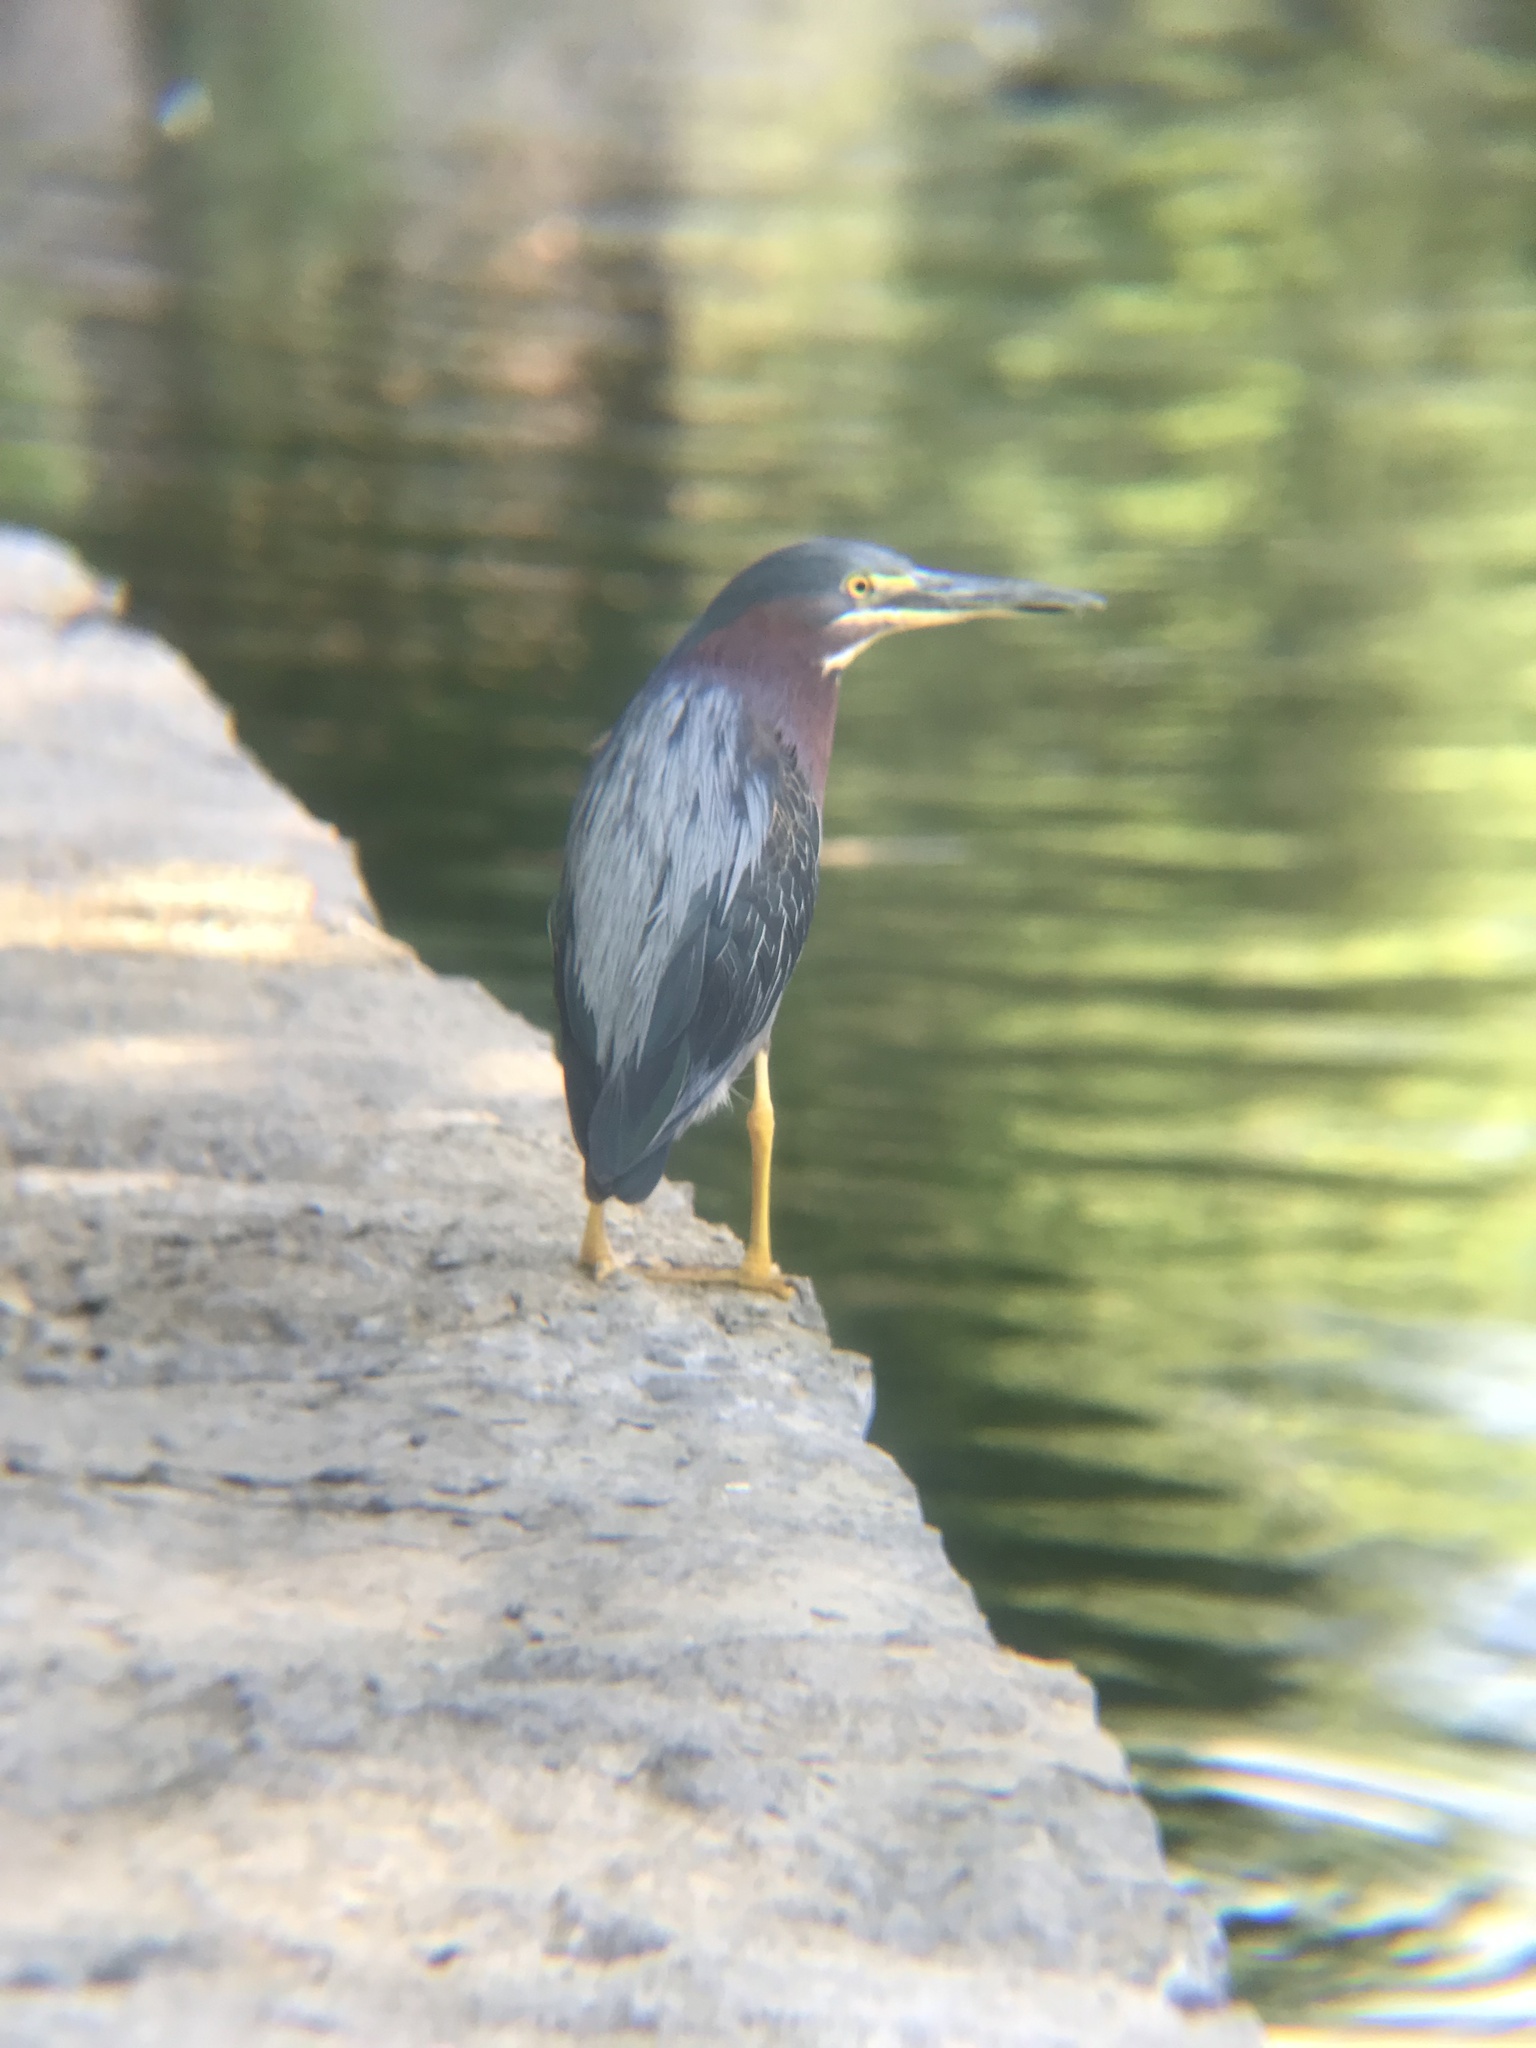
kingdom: Animalia
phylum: Chordata
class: Aves
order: Pelecaniformes
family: Ardeidae
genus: Butorides
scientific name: Butorides virescens
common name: Green heron
